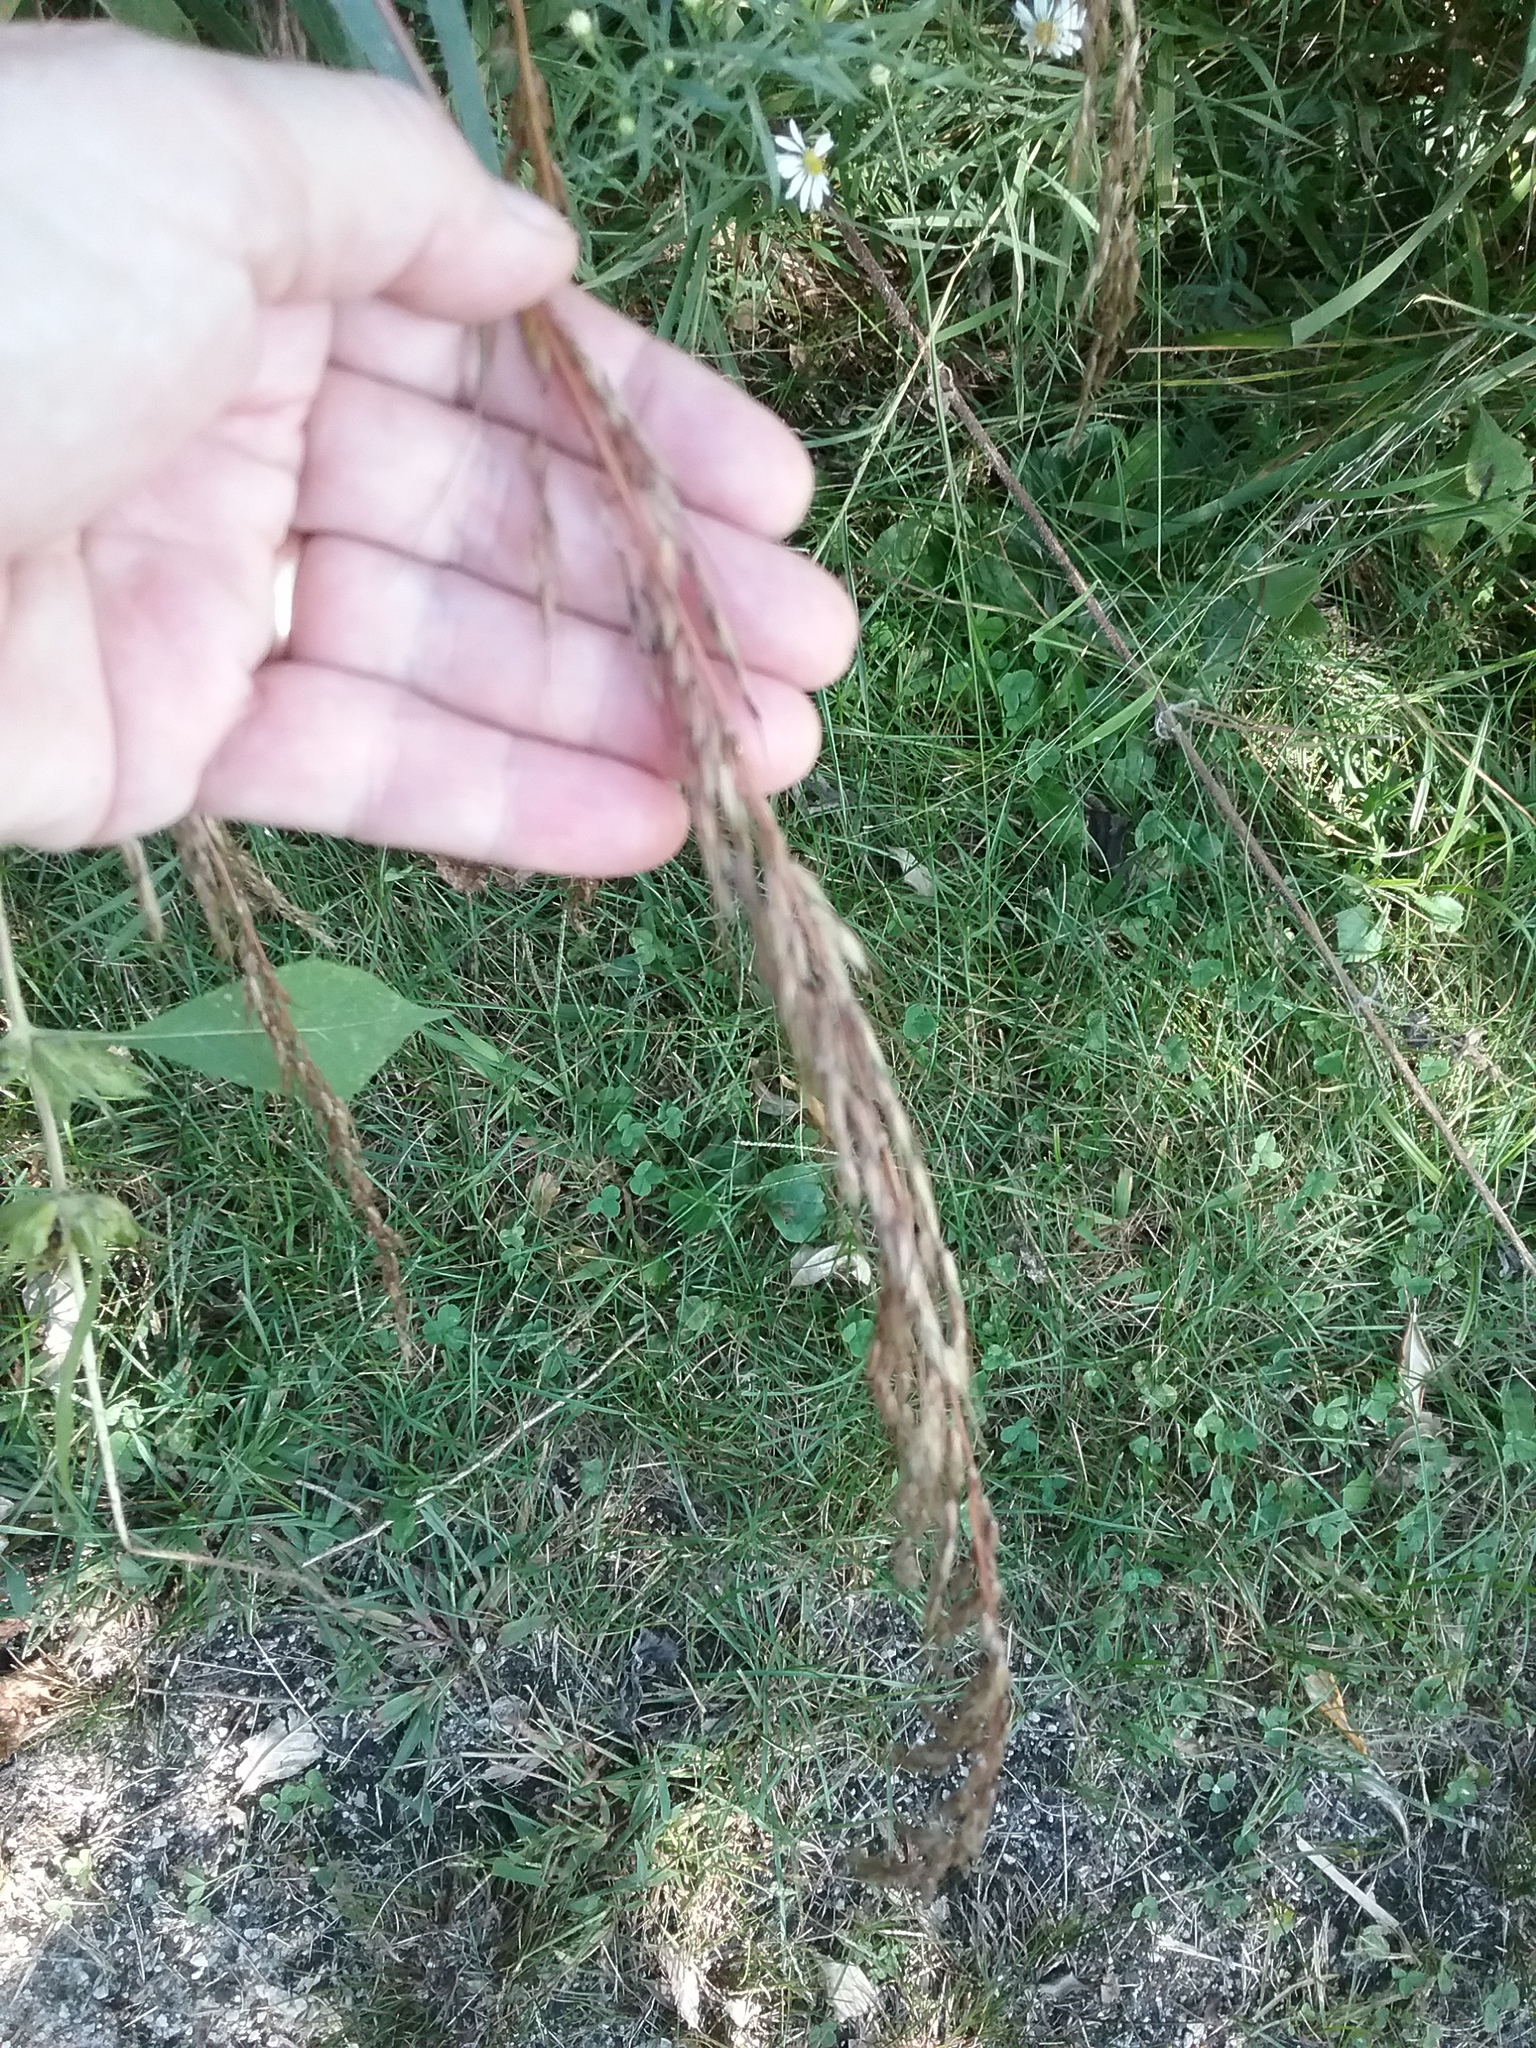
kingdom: Plantae
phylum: Tracheophyta
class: Liliopsida
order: Poales
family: Poaceae
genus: Sorghastrum
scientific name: Sorghastrum nutans
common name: Indian grass
